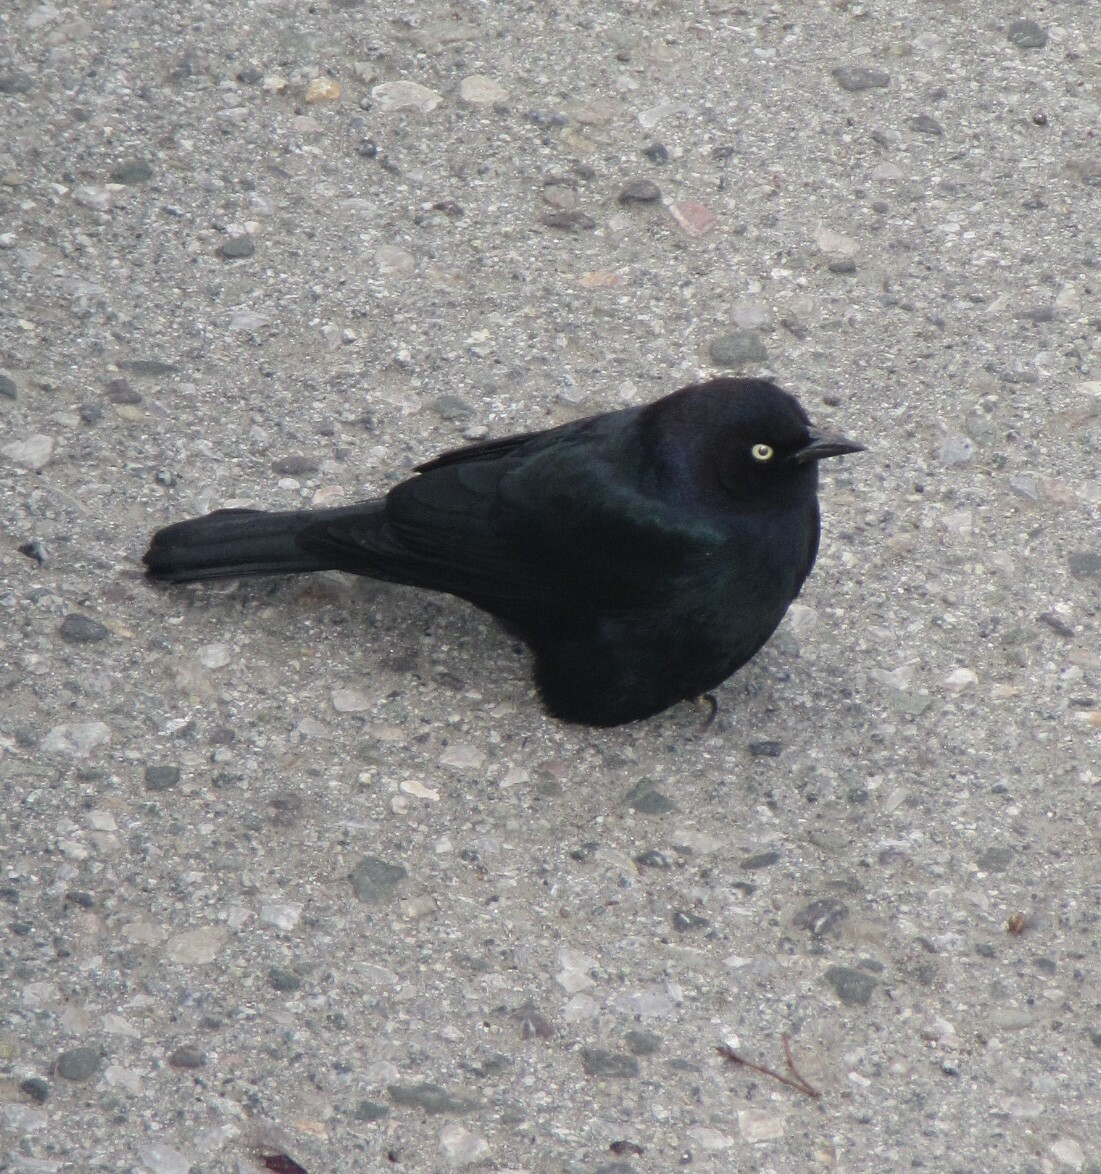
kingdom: Animalia
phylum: Chordata
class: Aves
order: Passeriformes
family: Icteridae
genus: Euphagus
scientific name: Euphagus cyanocephalus
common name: Brewer's blackbird
